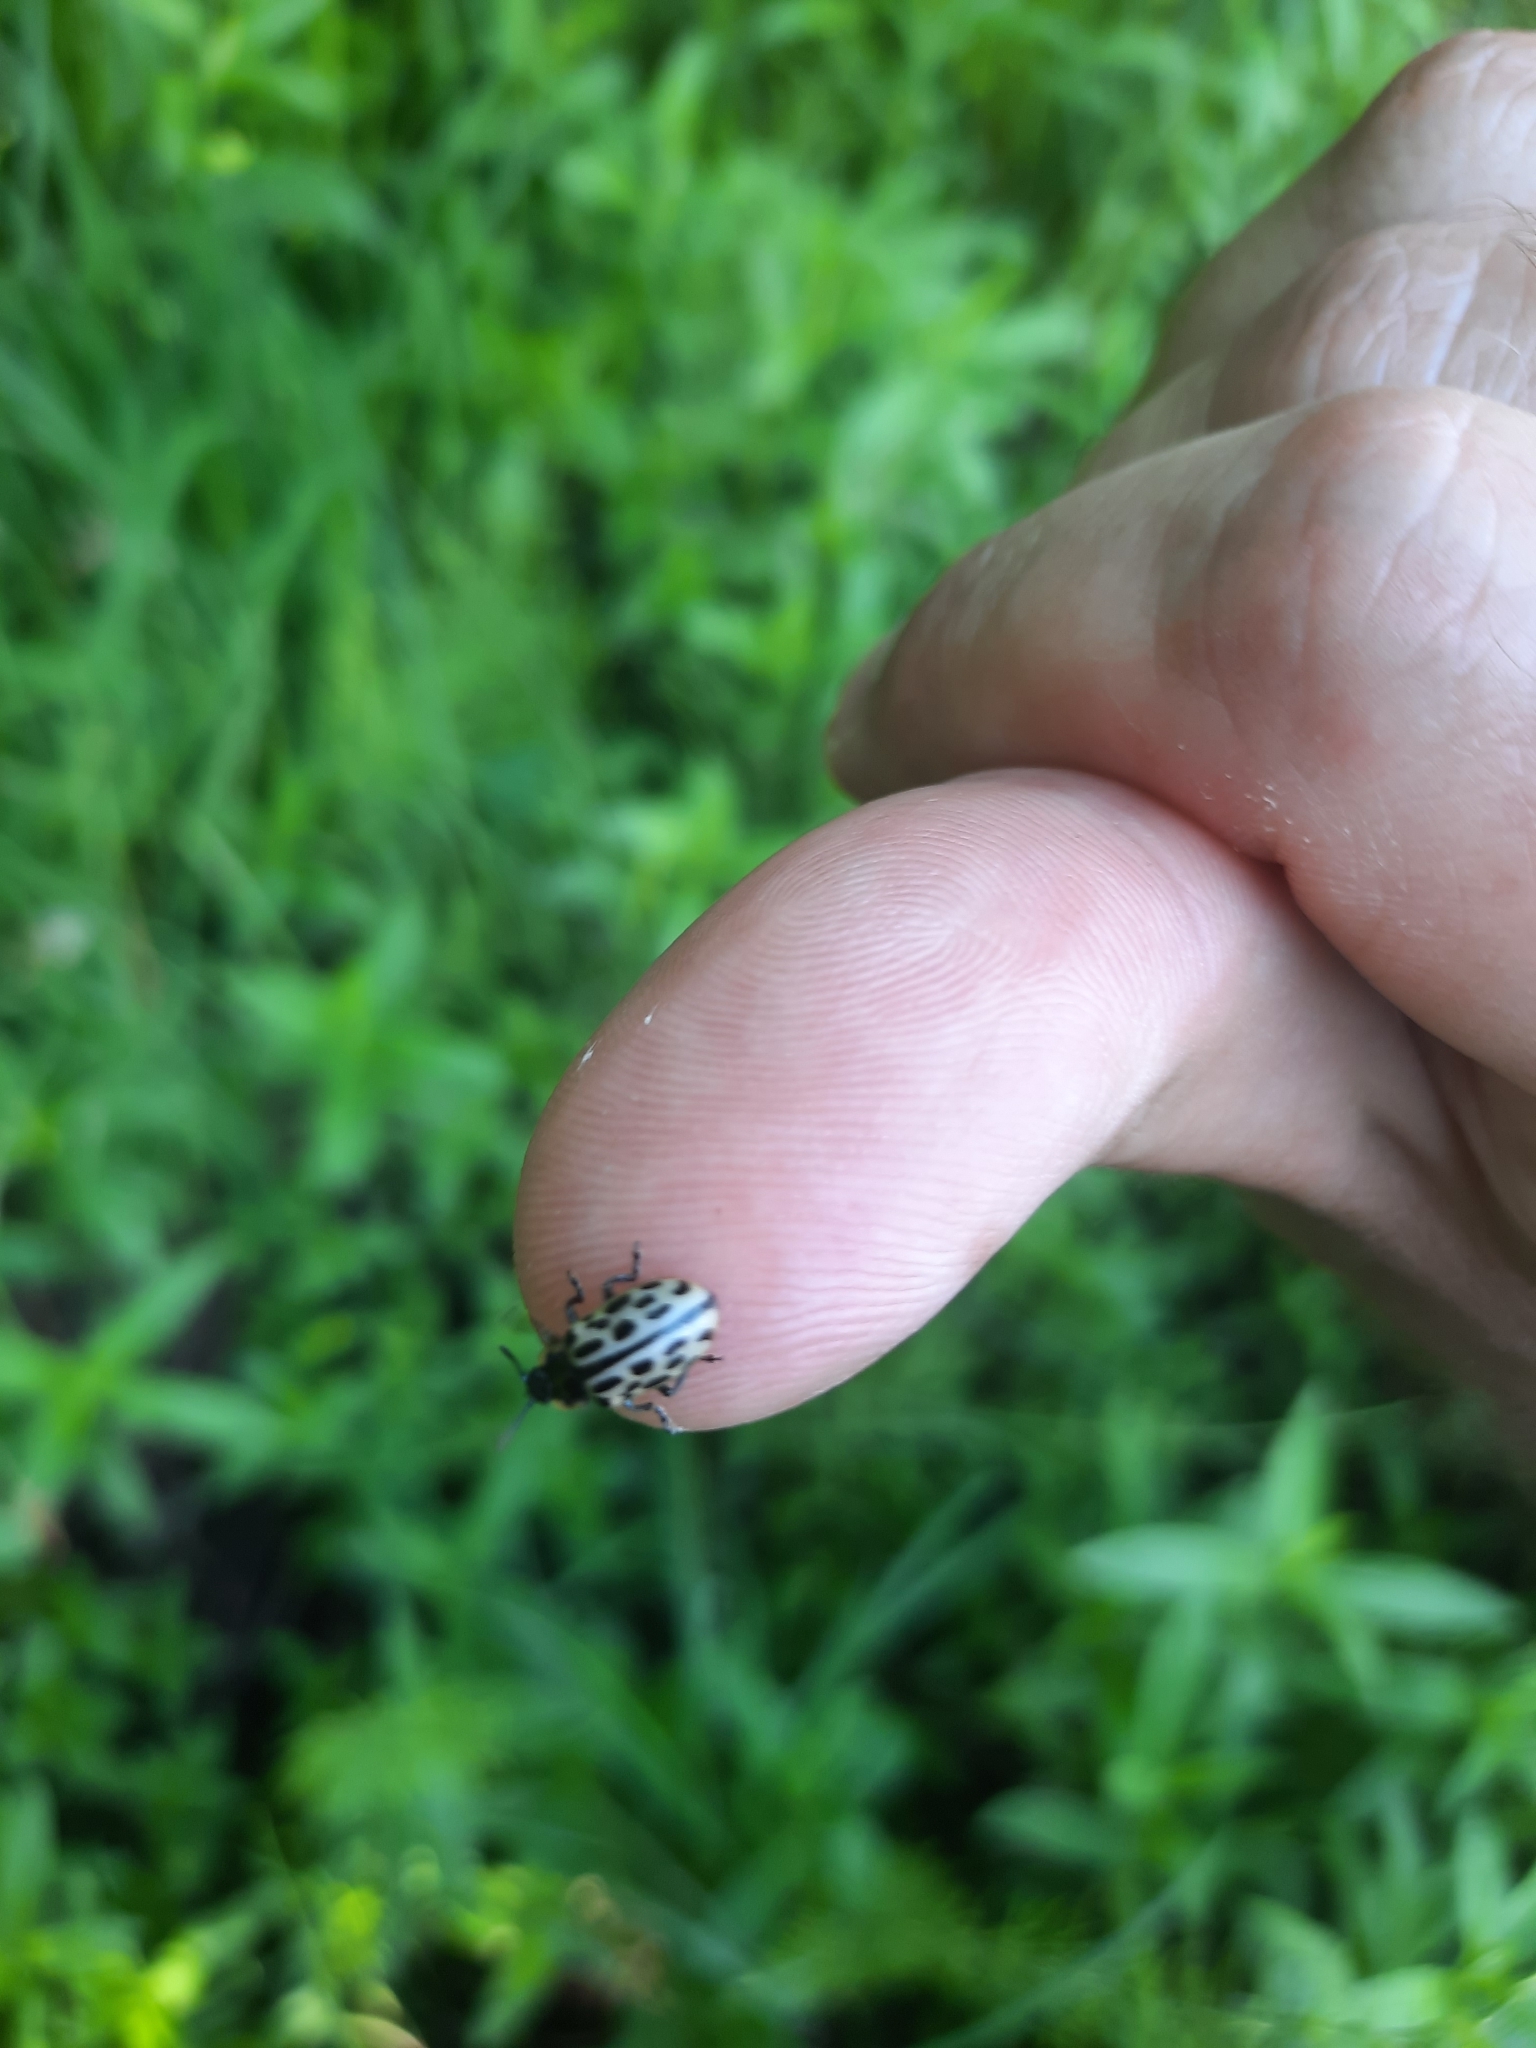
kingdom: Animalia
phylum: Arthropoda
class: Insecta
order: Coleoptera
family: Chrysomelidae
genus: Chrysomela
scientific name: Chrysomela vigintipunctata
